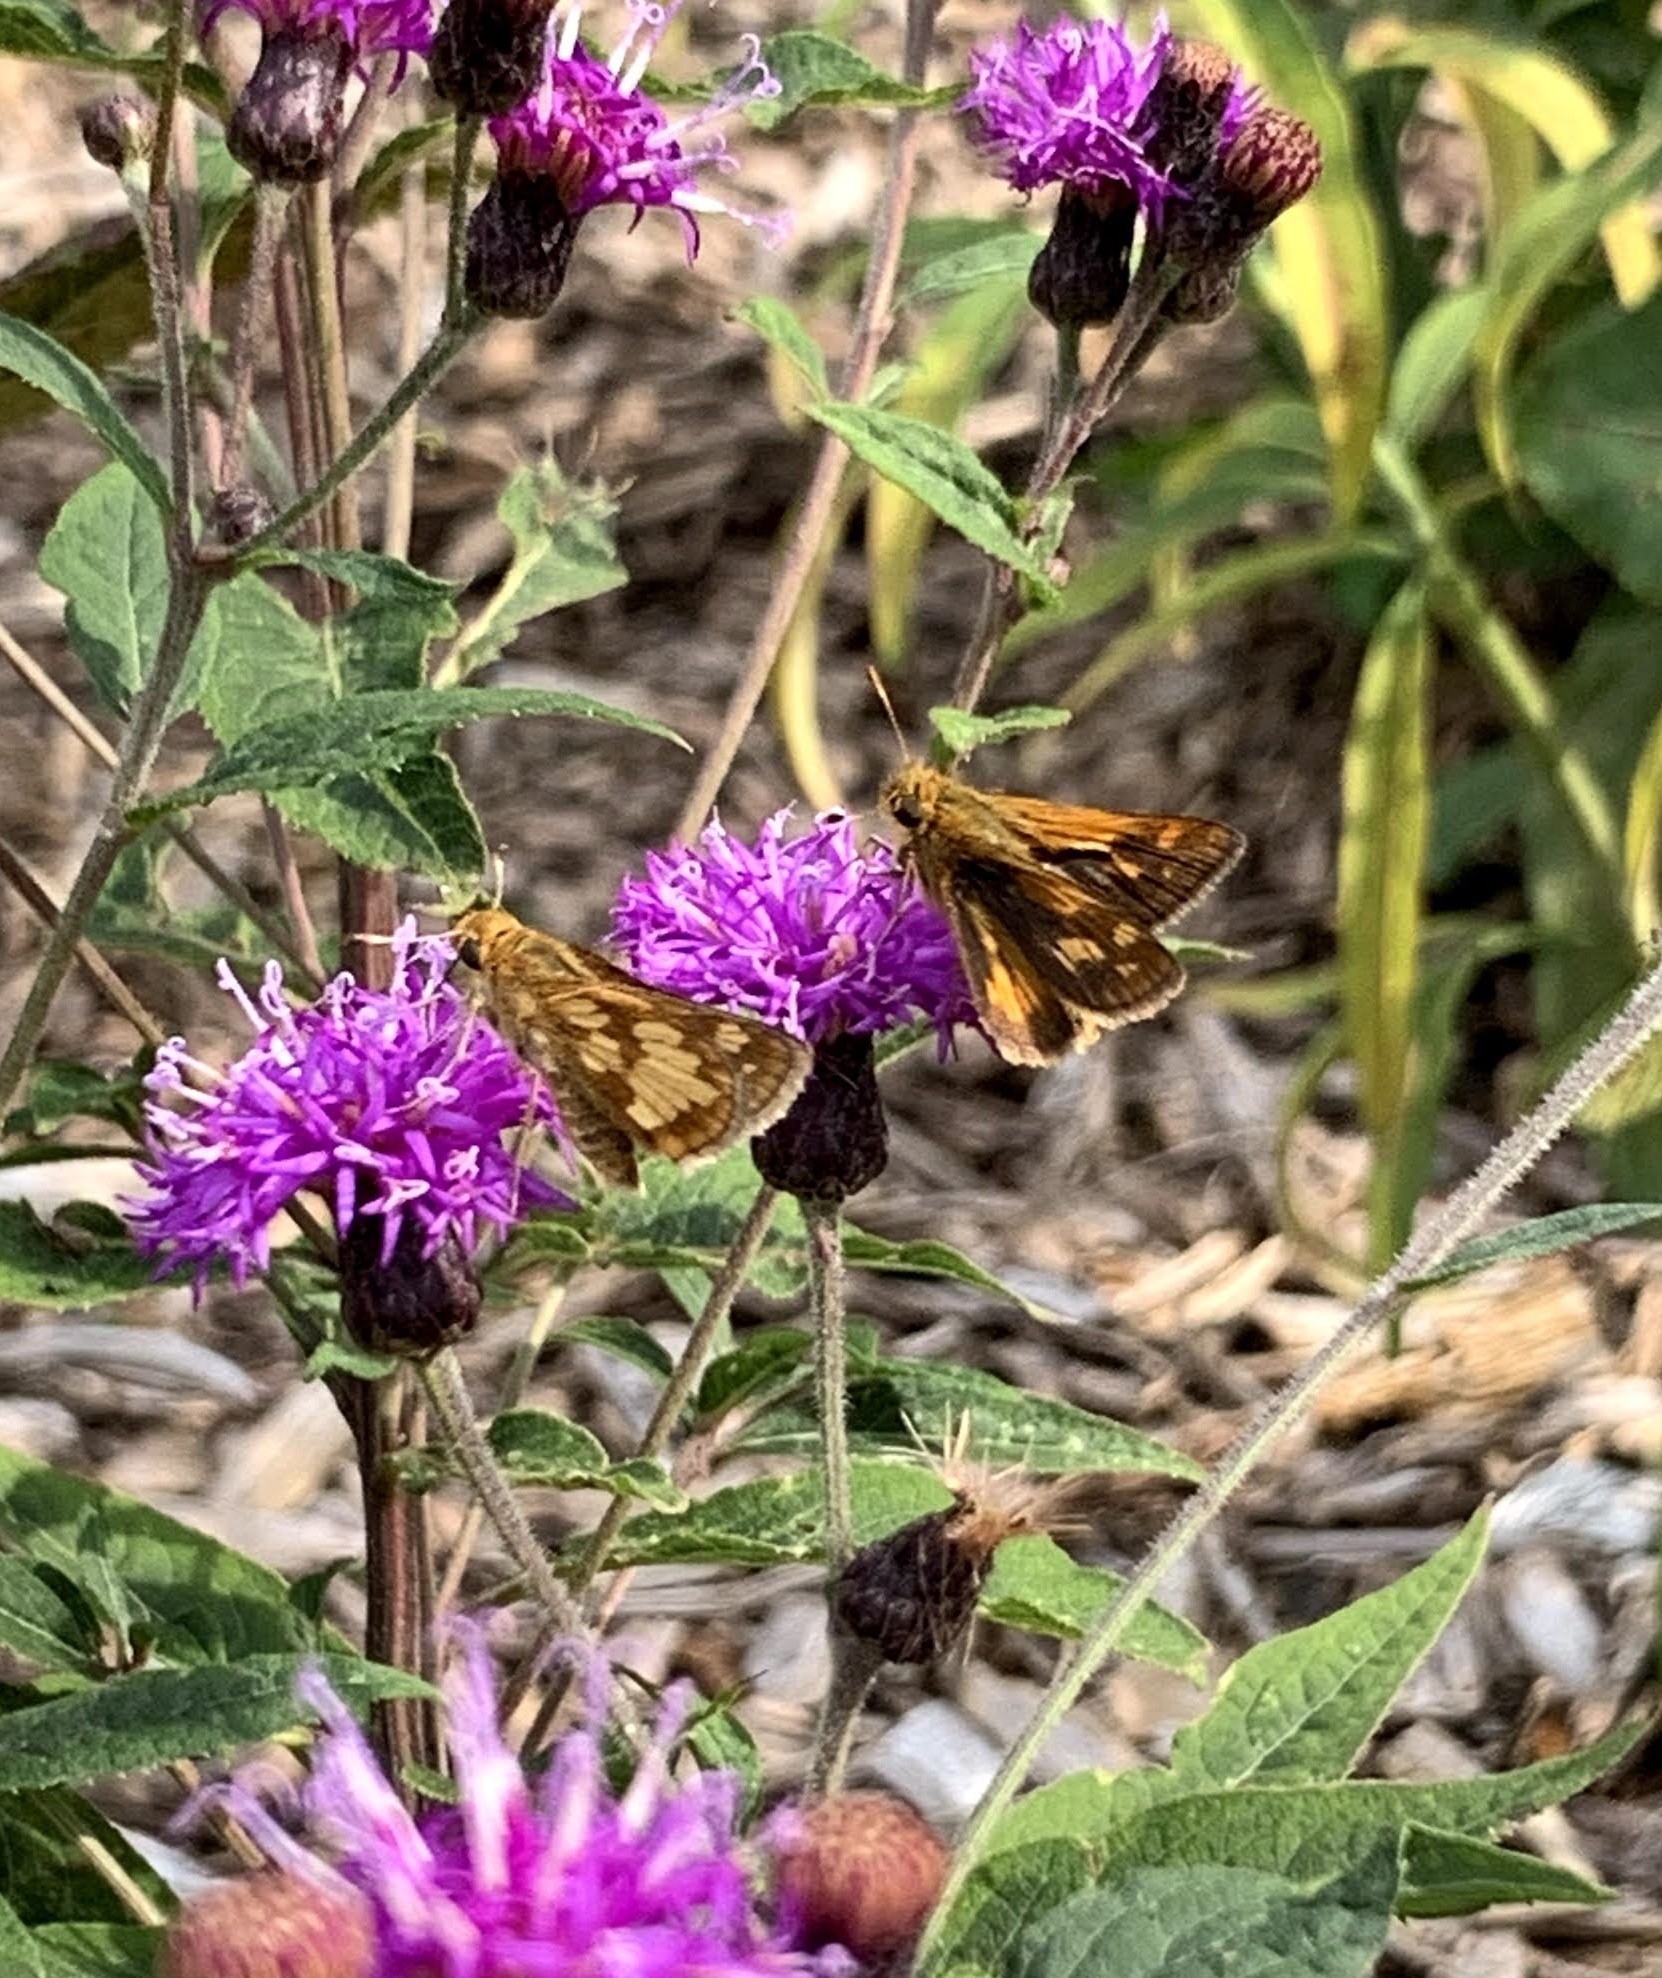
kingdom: Animalia
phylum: Arthropoda
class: Insecta
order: Lepidoptera
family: Hesperiidae
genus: Polites
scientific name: Polites coras
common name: Peck's skipper
